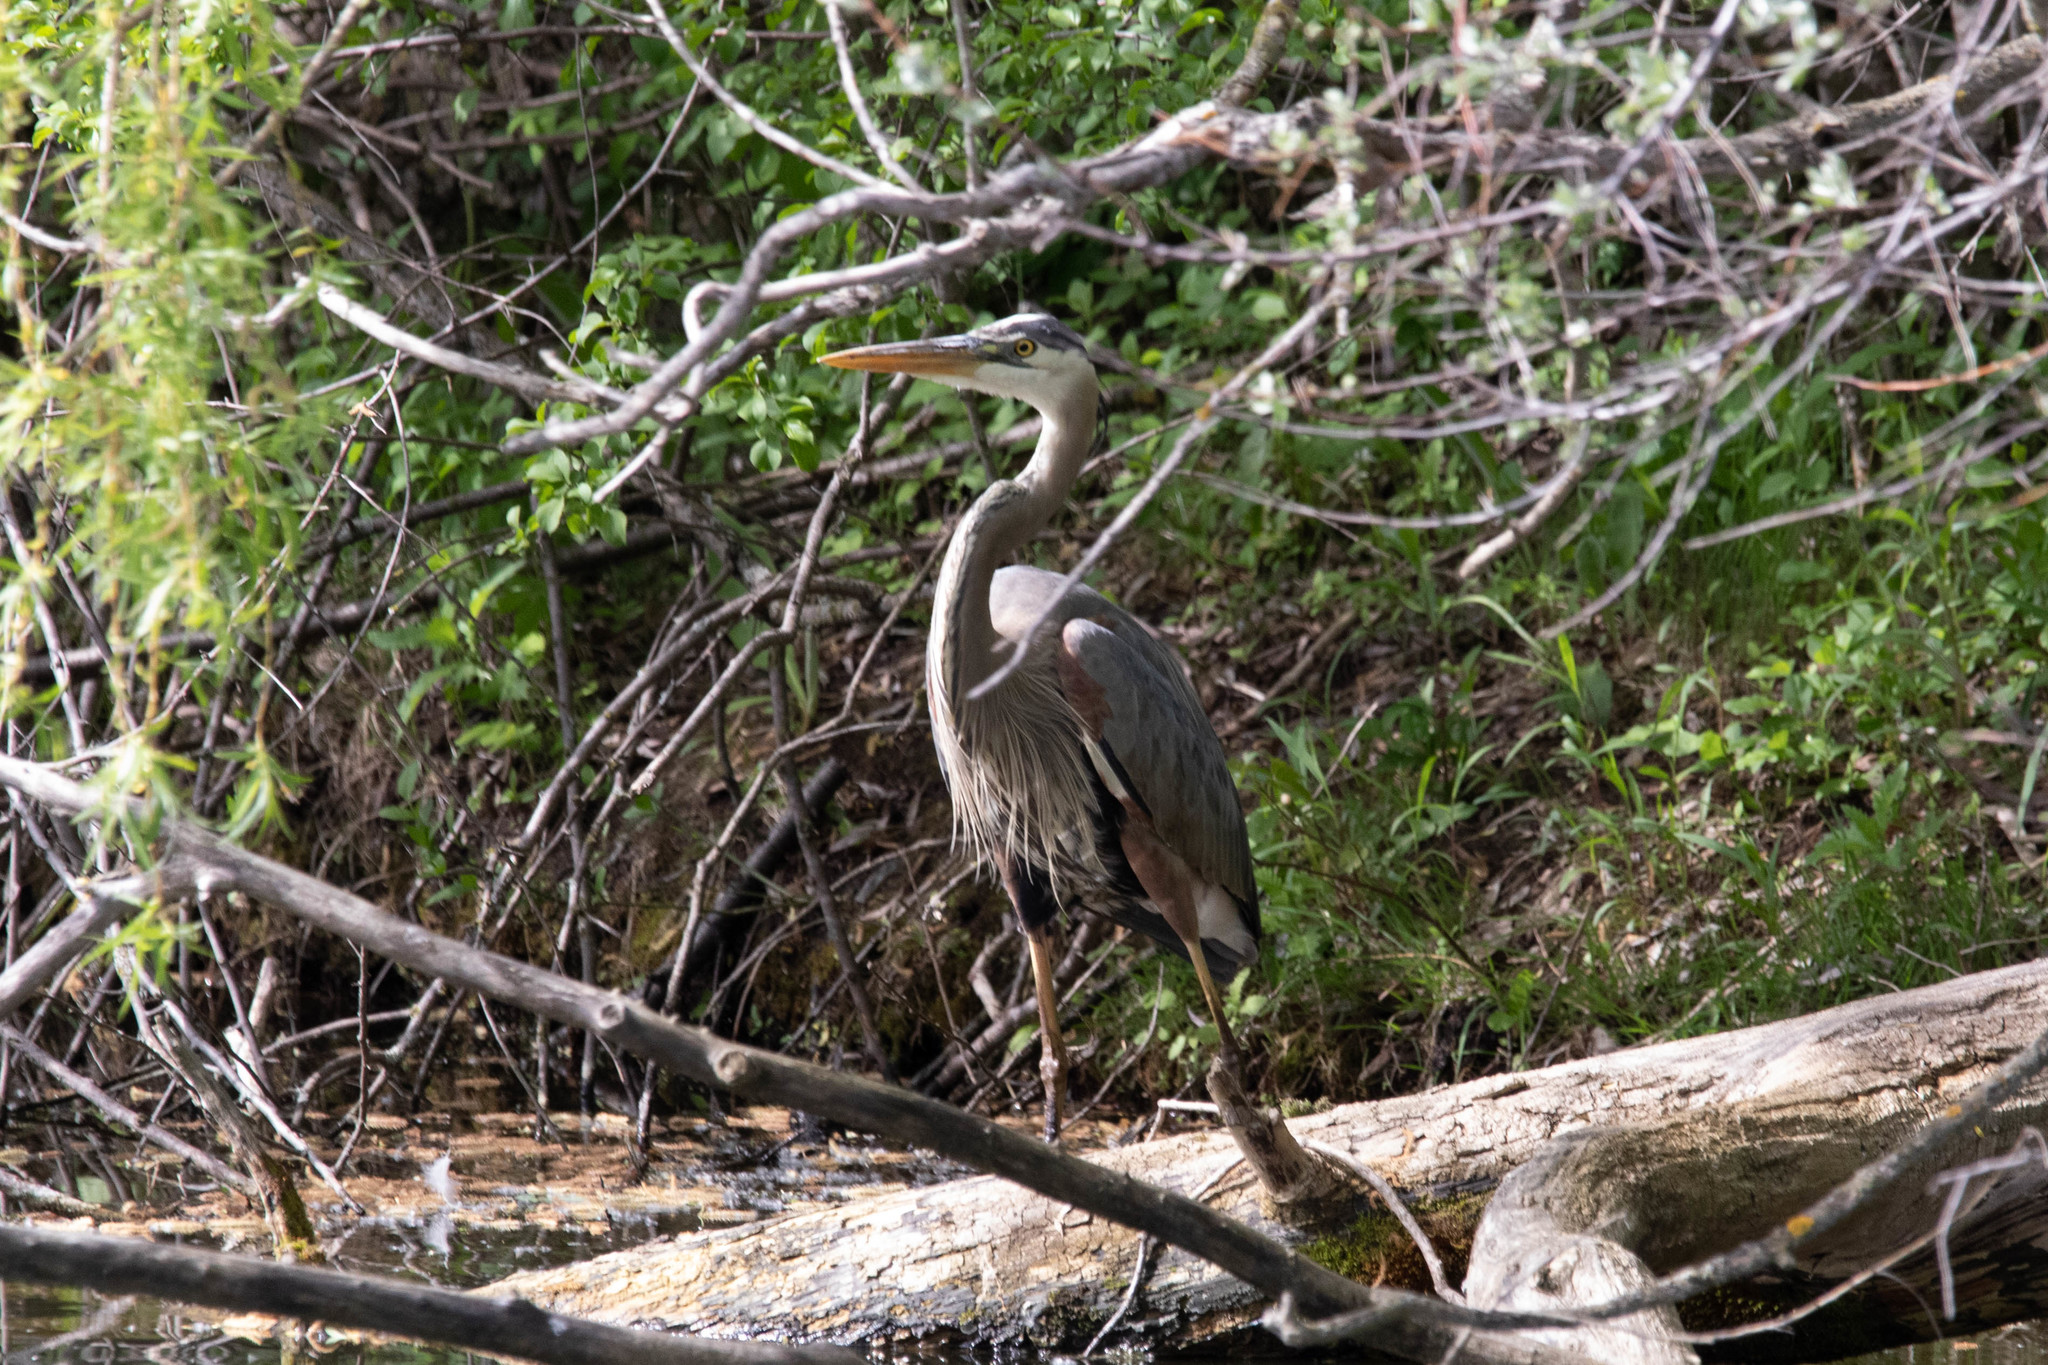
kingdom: Animalia
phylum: Chordata
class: Aves
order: Pelecaniformes
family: Ardeidae
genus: Ardea
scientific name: Ardea herodias
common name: Great blue heron
